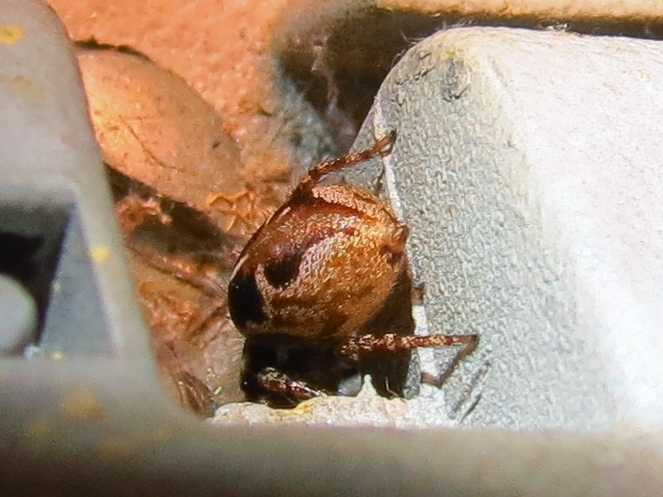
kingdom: Animalia
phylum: Arthropoda
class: Arachnida
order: Araneae
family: Salticidae
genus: Anasaitis
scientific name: Anasaitis canosa
